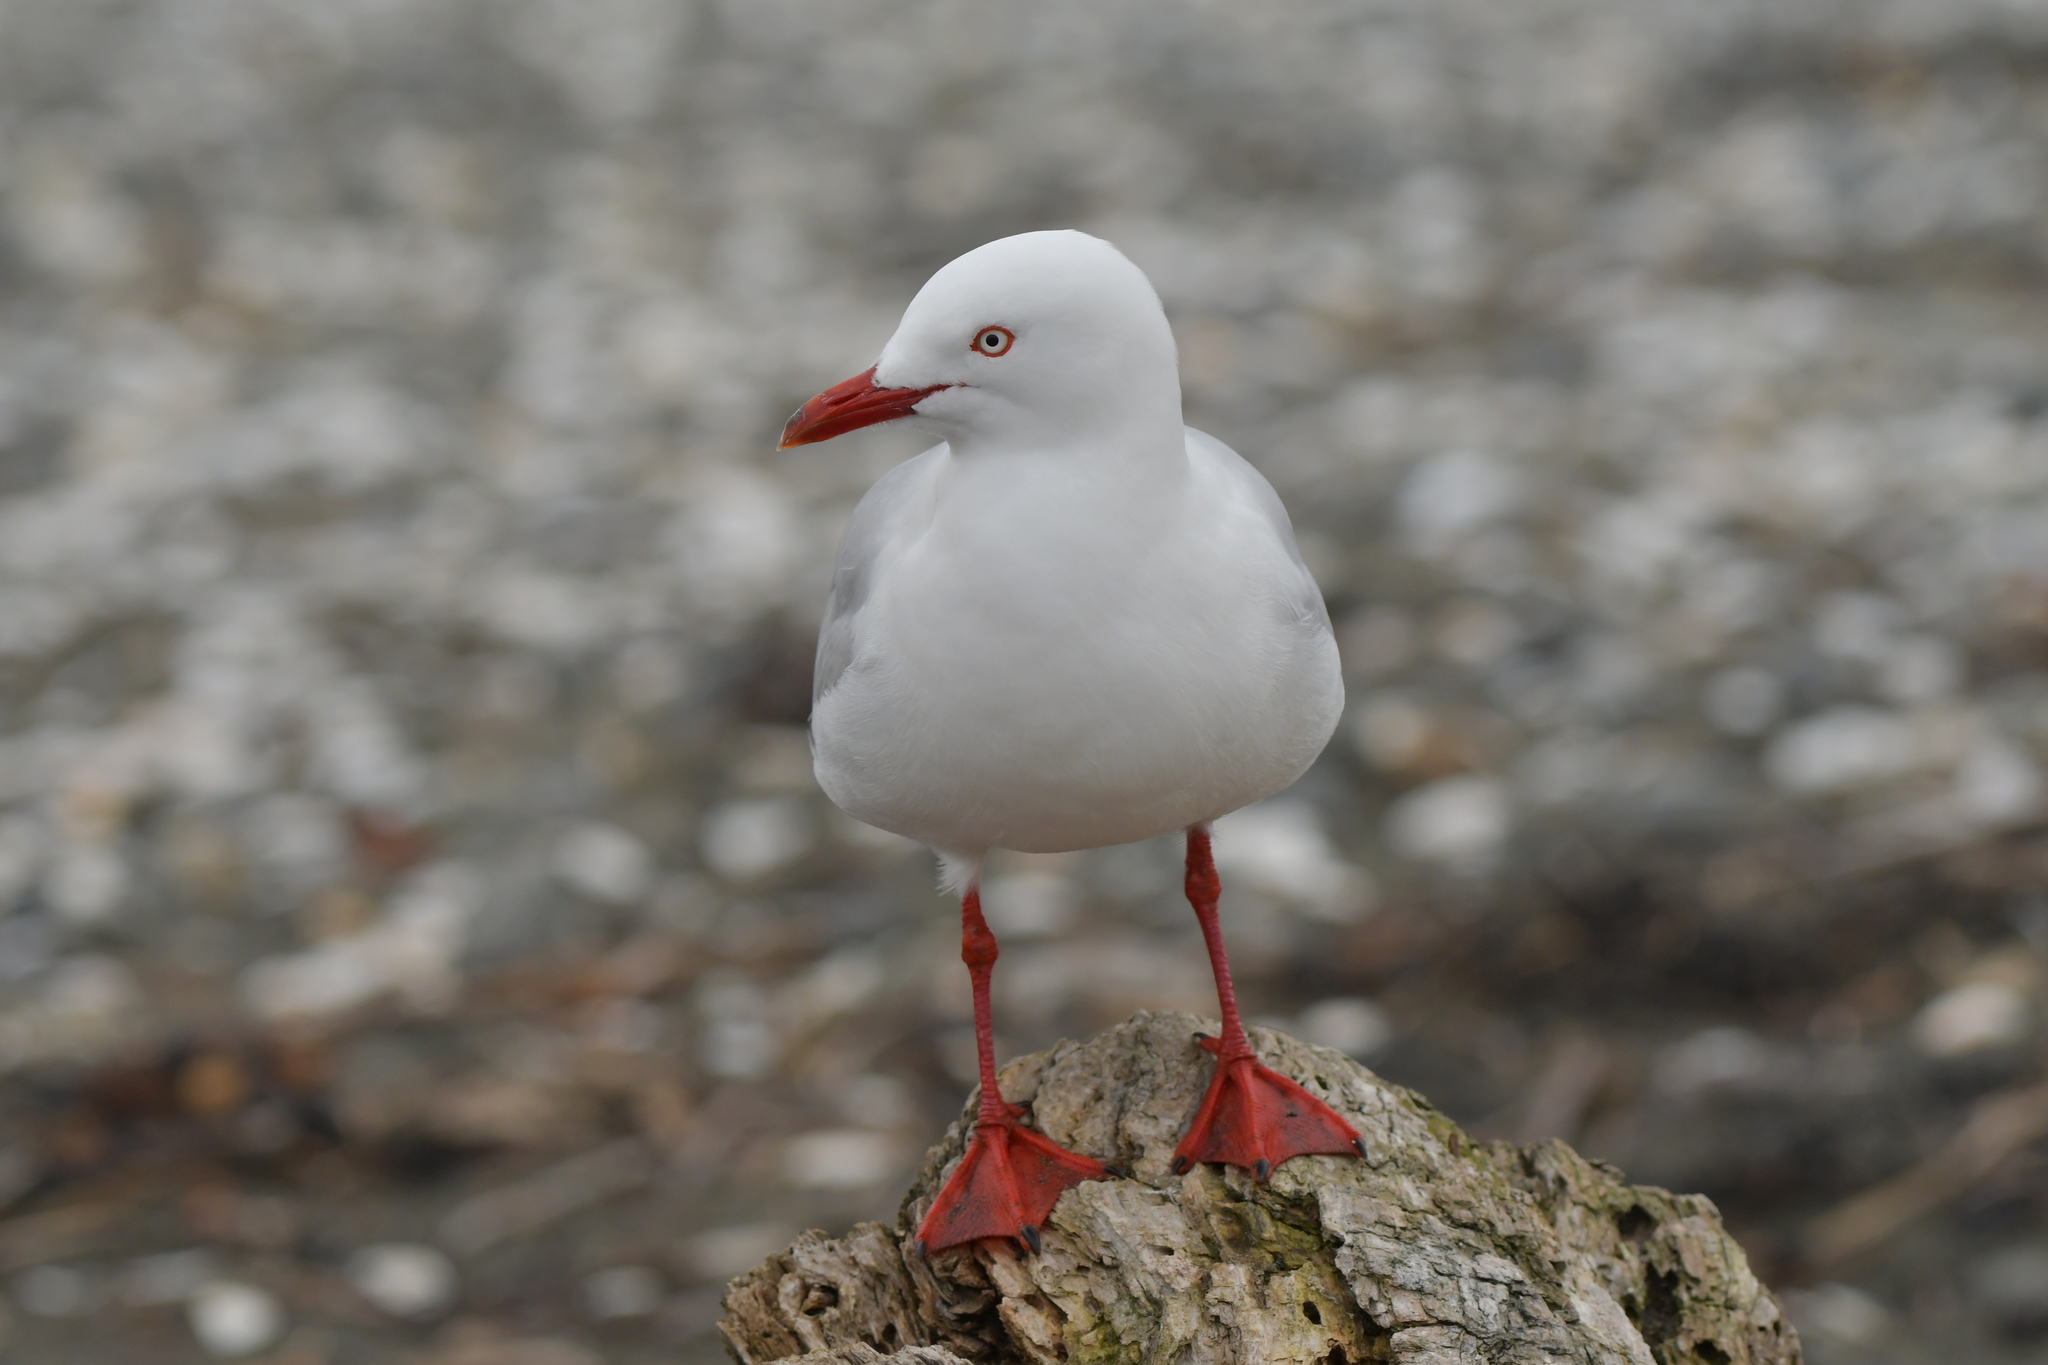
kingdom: Animalia
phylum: Chordata
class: Aves
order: Charadriiformes
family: Laridae
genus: Chroicocephalus
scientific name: Chroicocephalus novaehollandiae
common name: Silver gull
